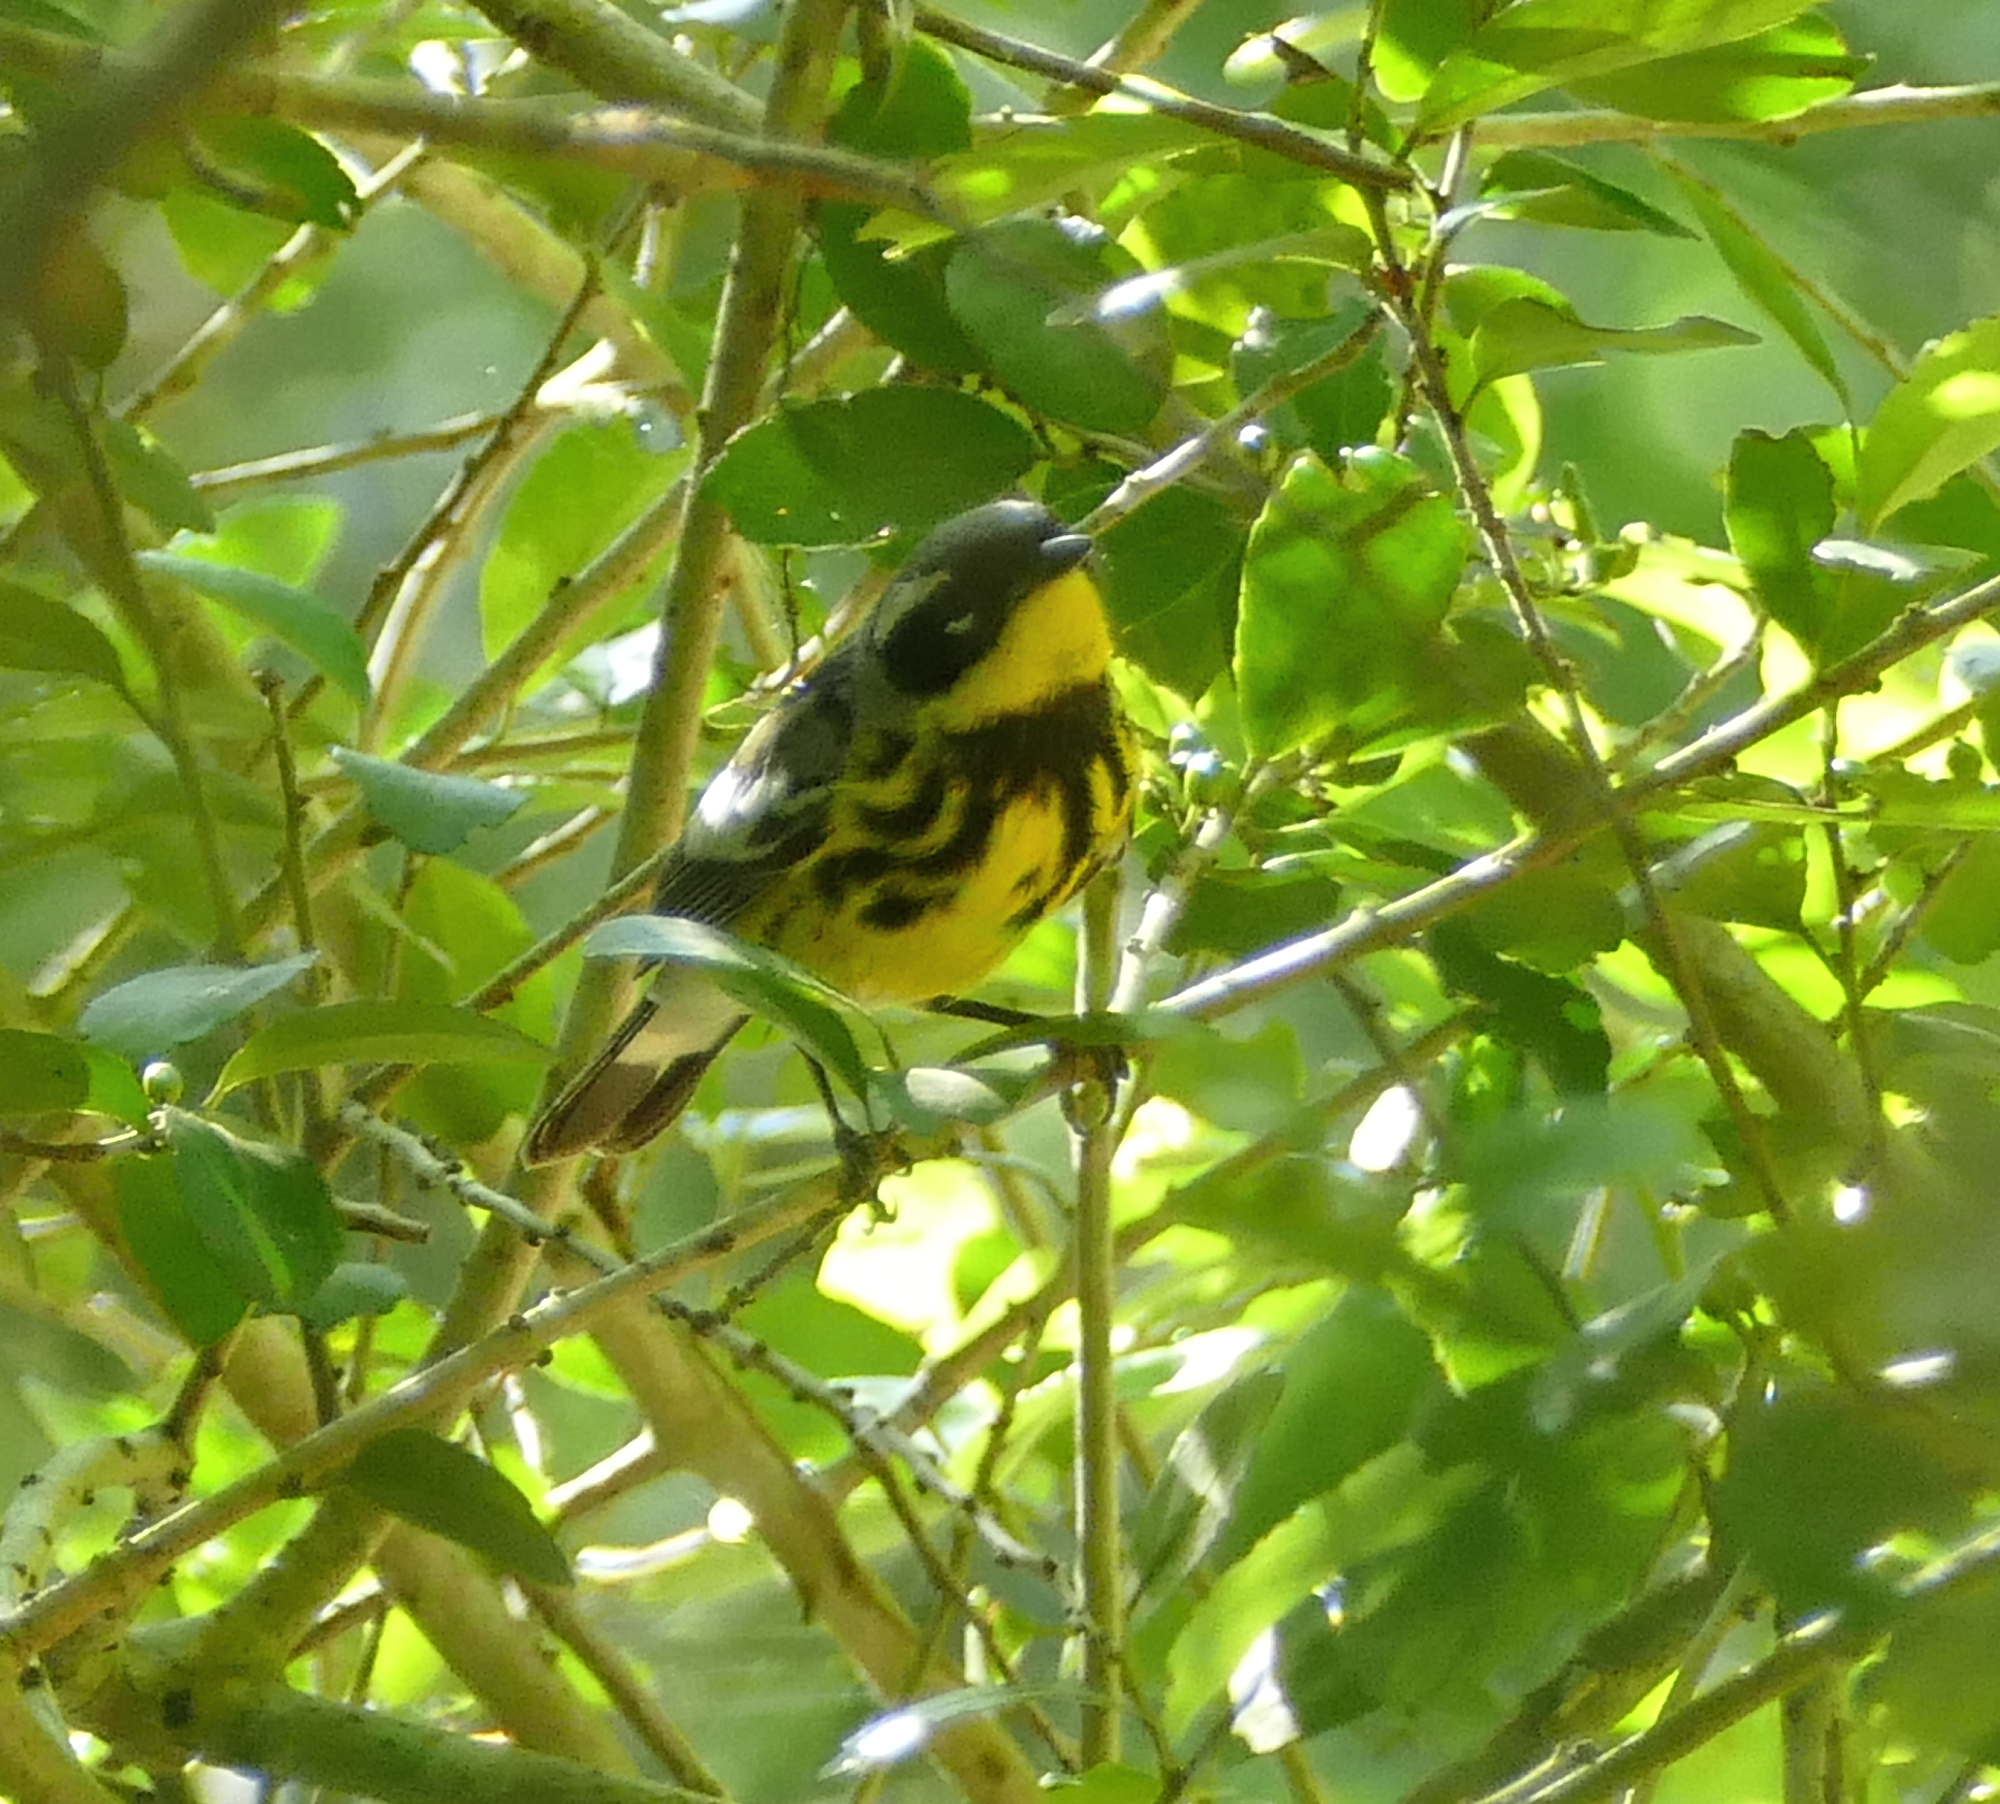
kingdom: Animalia
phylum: Chordata
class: Aves
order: Passeriformes
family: Parulidae
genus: Setophaga
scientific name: Setophaga magnolia
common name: Magnolia warbler
